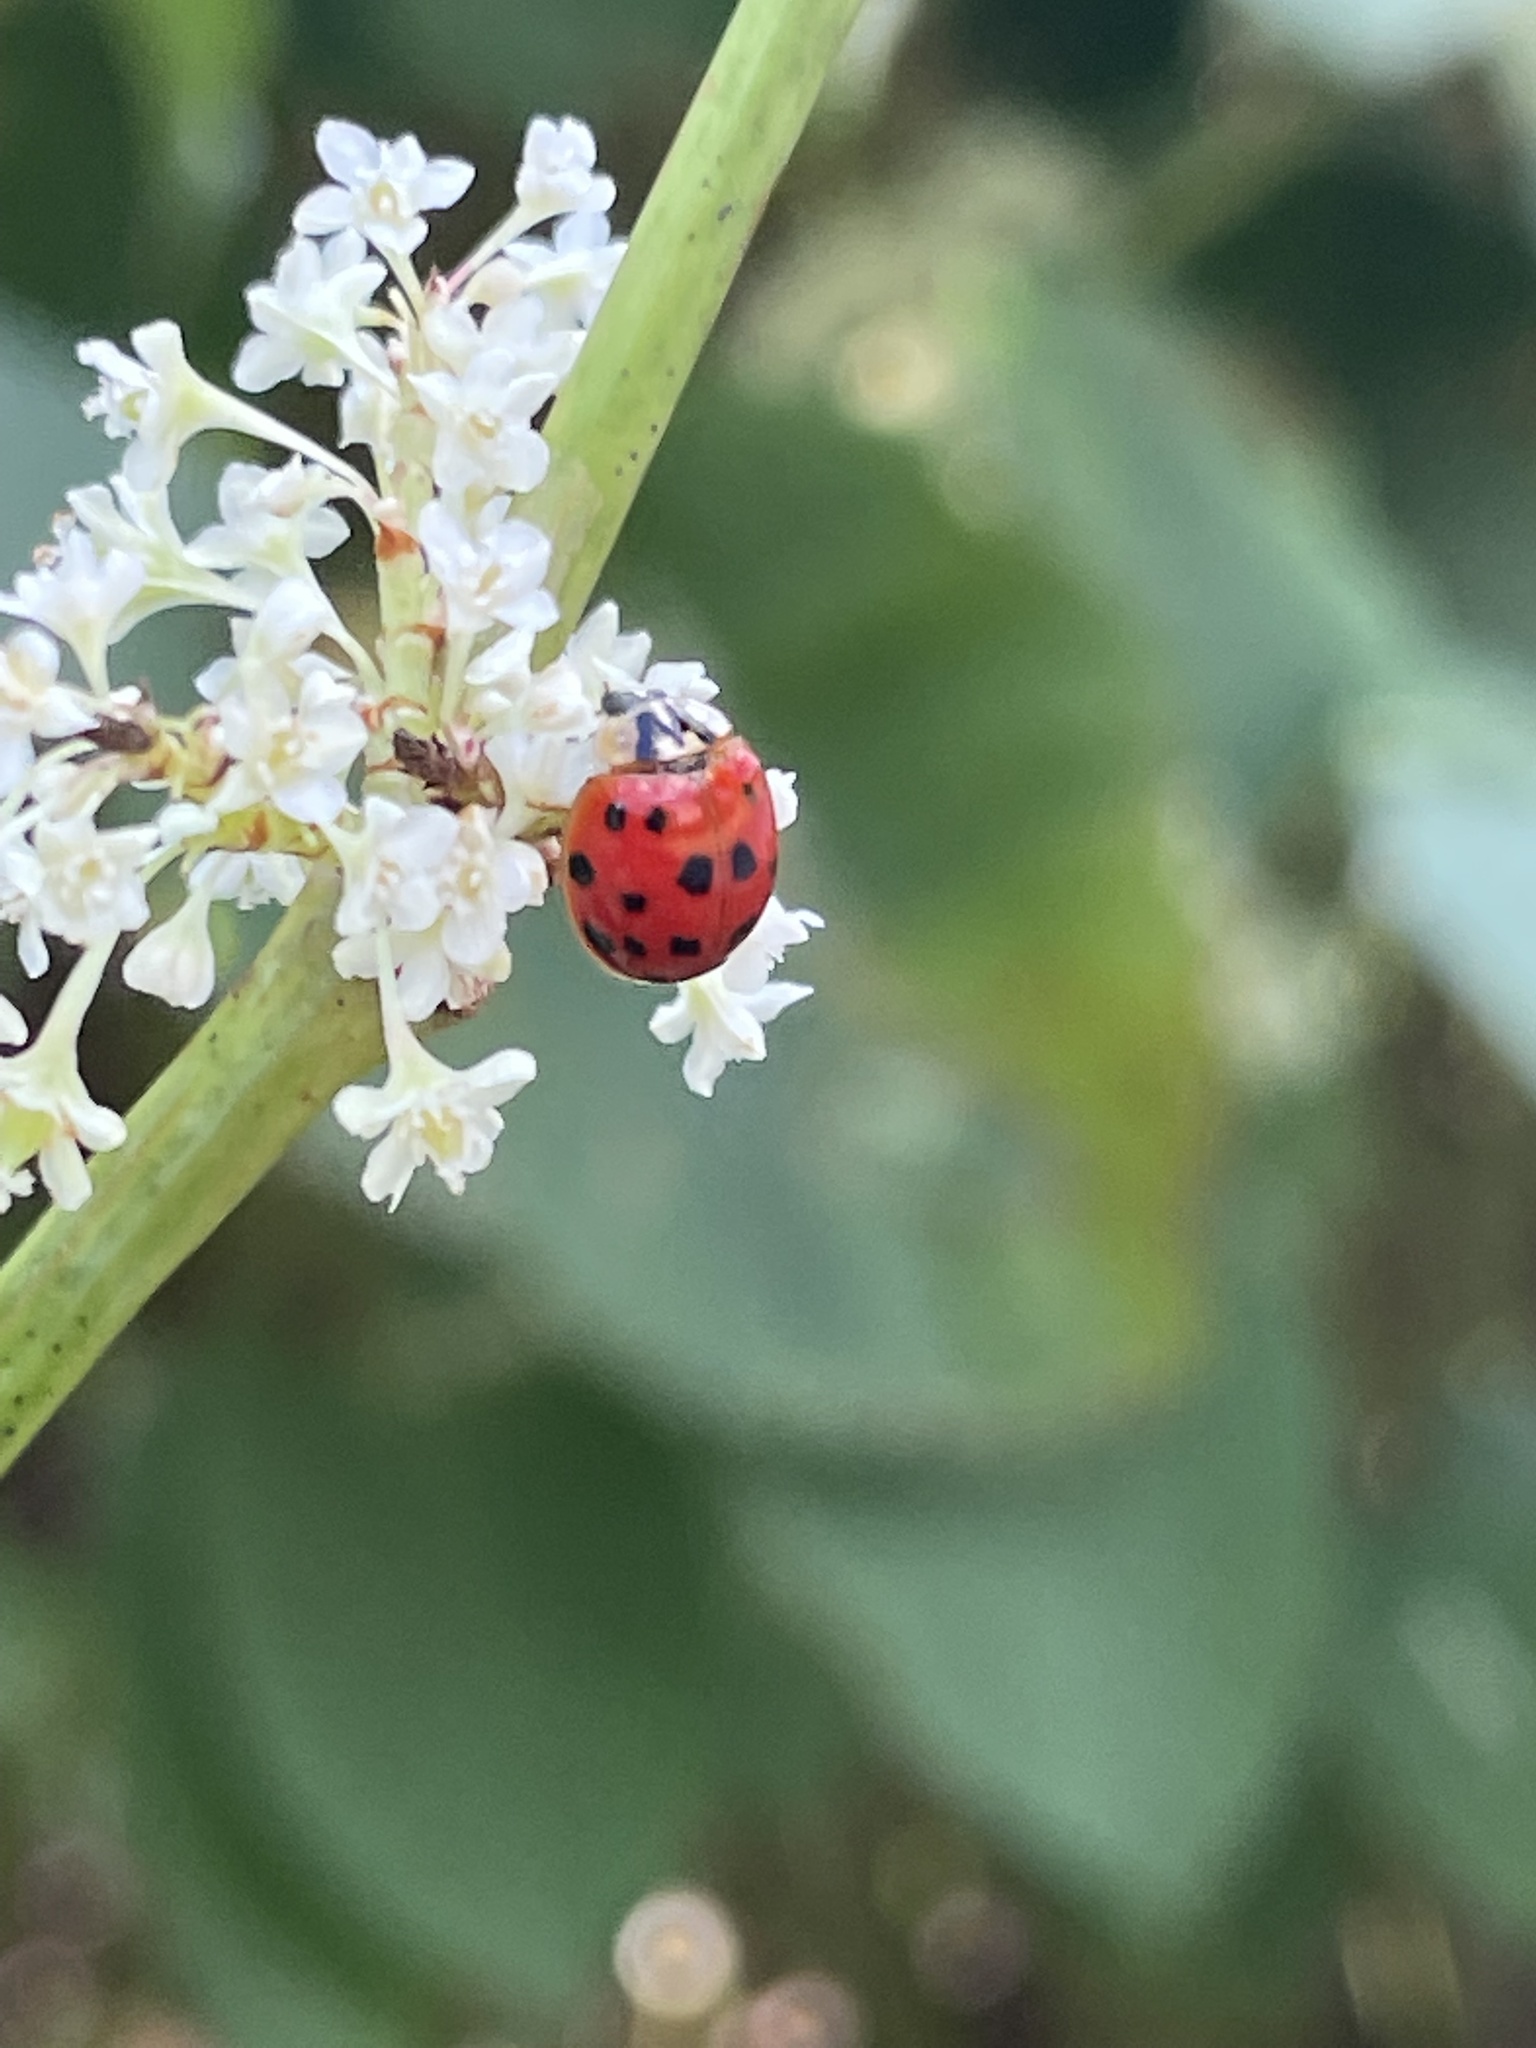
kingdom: Animalia
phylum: Arthropoda
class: Insecta
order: Coleoptera
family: Coccinellidae
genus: Harmonia
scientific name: Harmonia axyridis
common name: Harlequin ladybird
